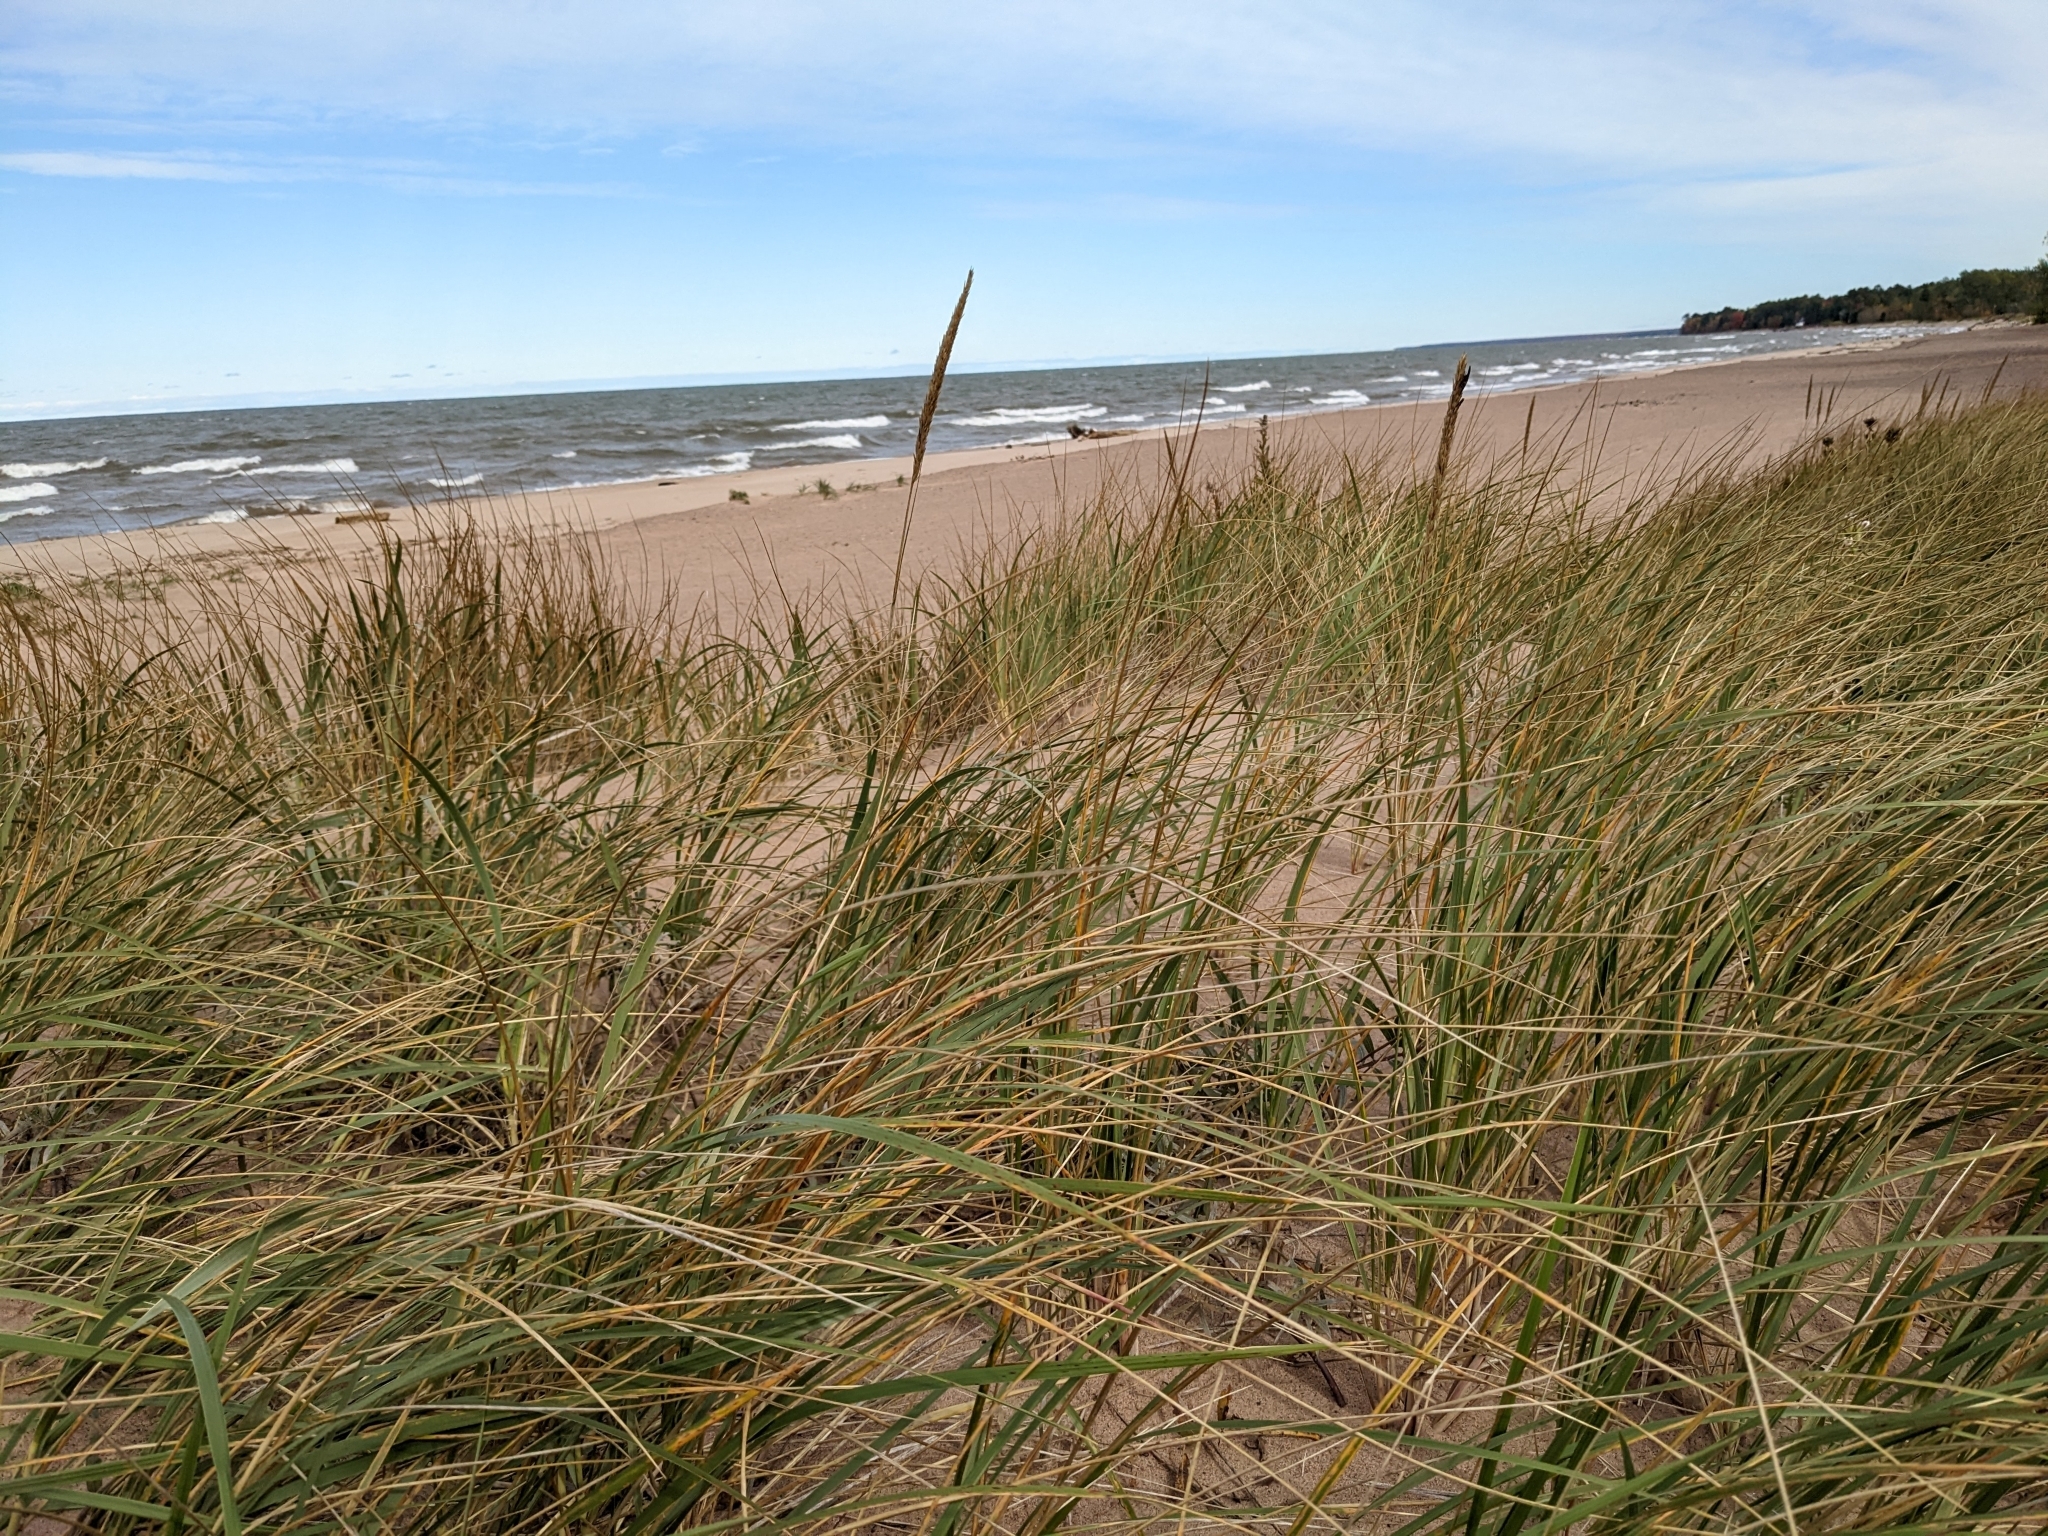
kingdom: Plantae
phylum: Tracheophyta
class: Liliopsida
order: Poales
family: Poaceae
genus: Calamagrostis
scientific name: Calamagrostis breviligulata
